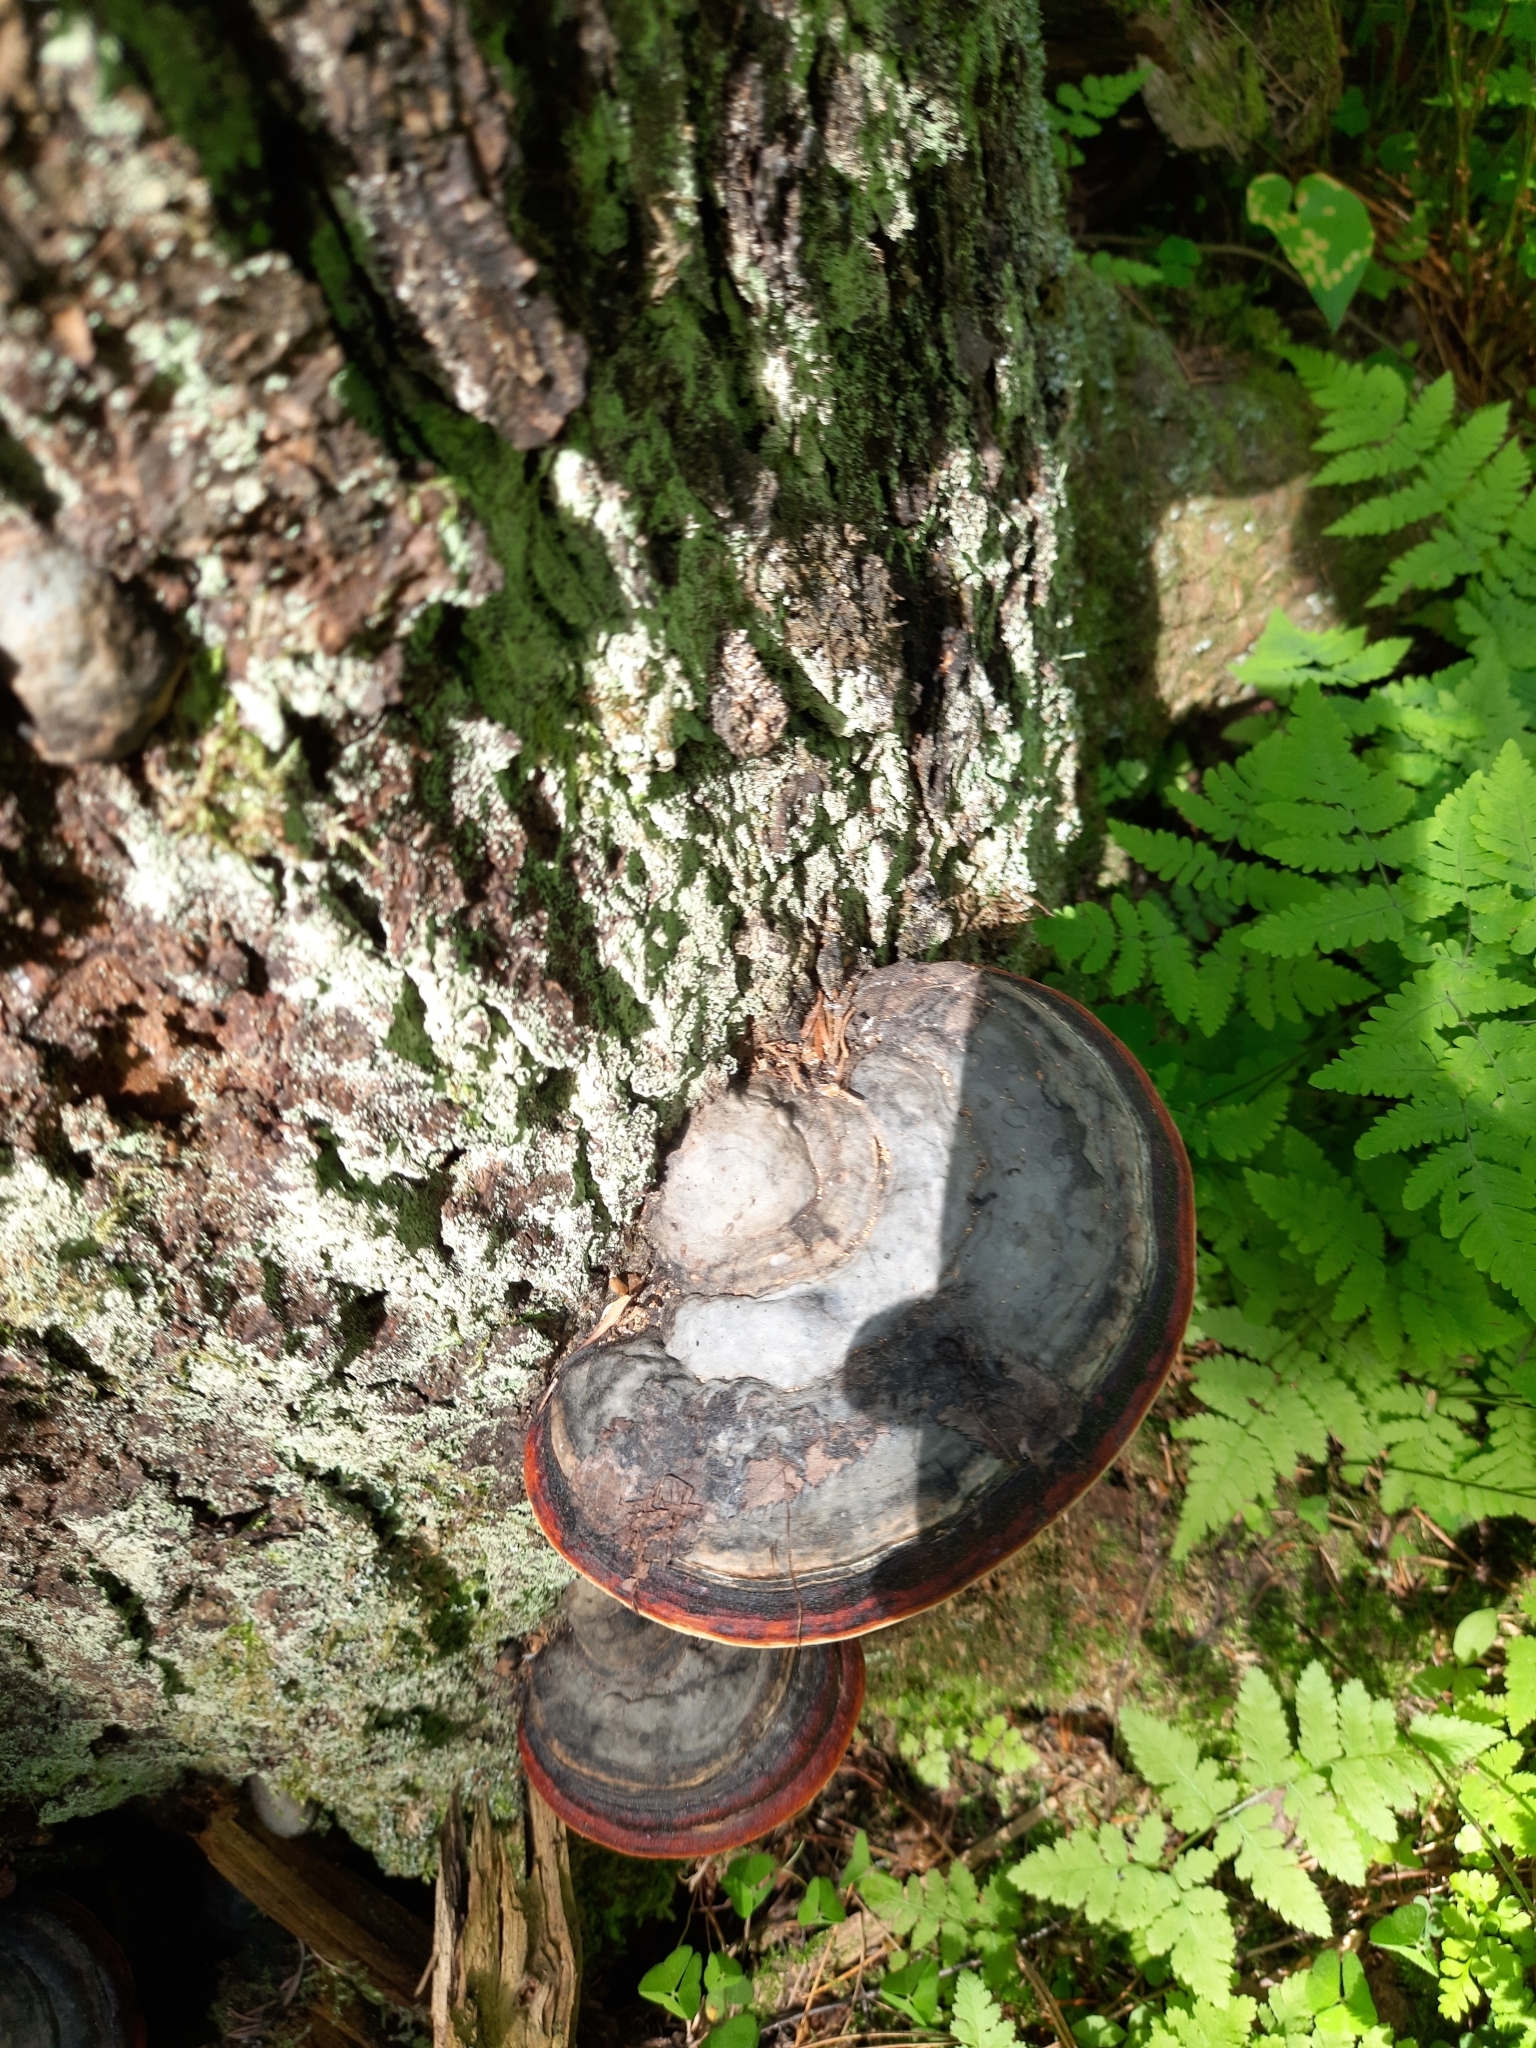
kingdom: Fungi
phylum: Basidiomycota
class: Agaricomycetes
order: Polyporales
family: Fomitopsidaceae
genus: Fomitopsis
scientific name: Fomitopsis pinicola
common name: Red-belted bracket
